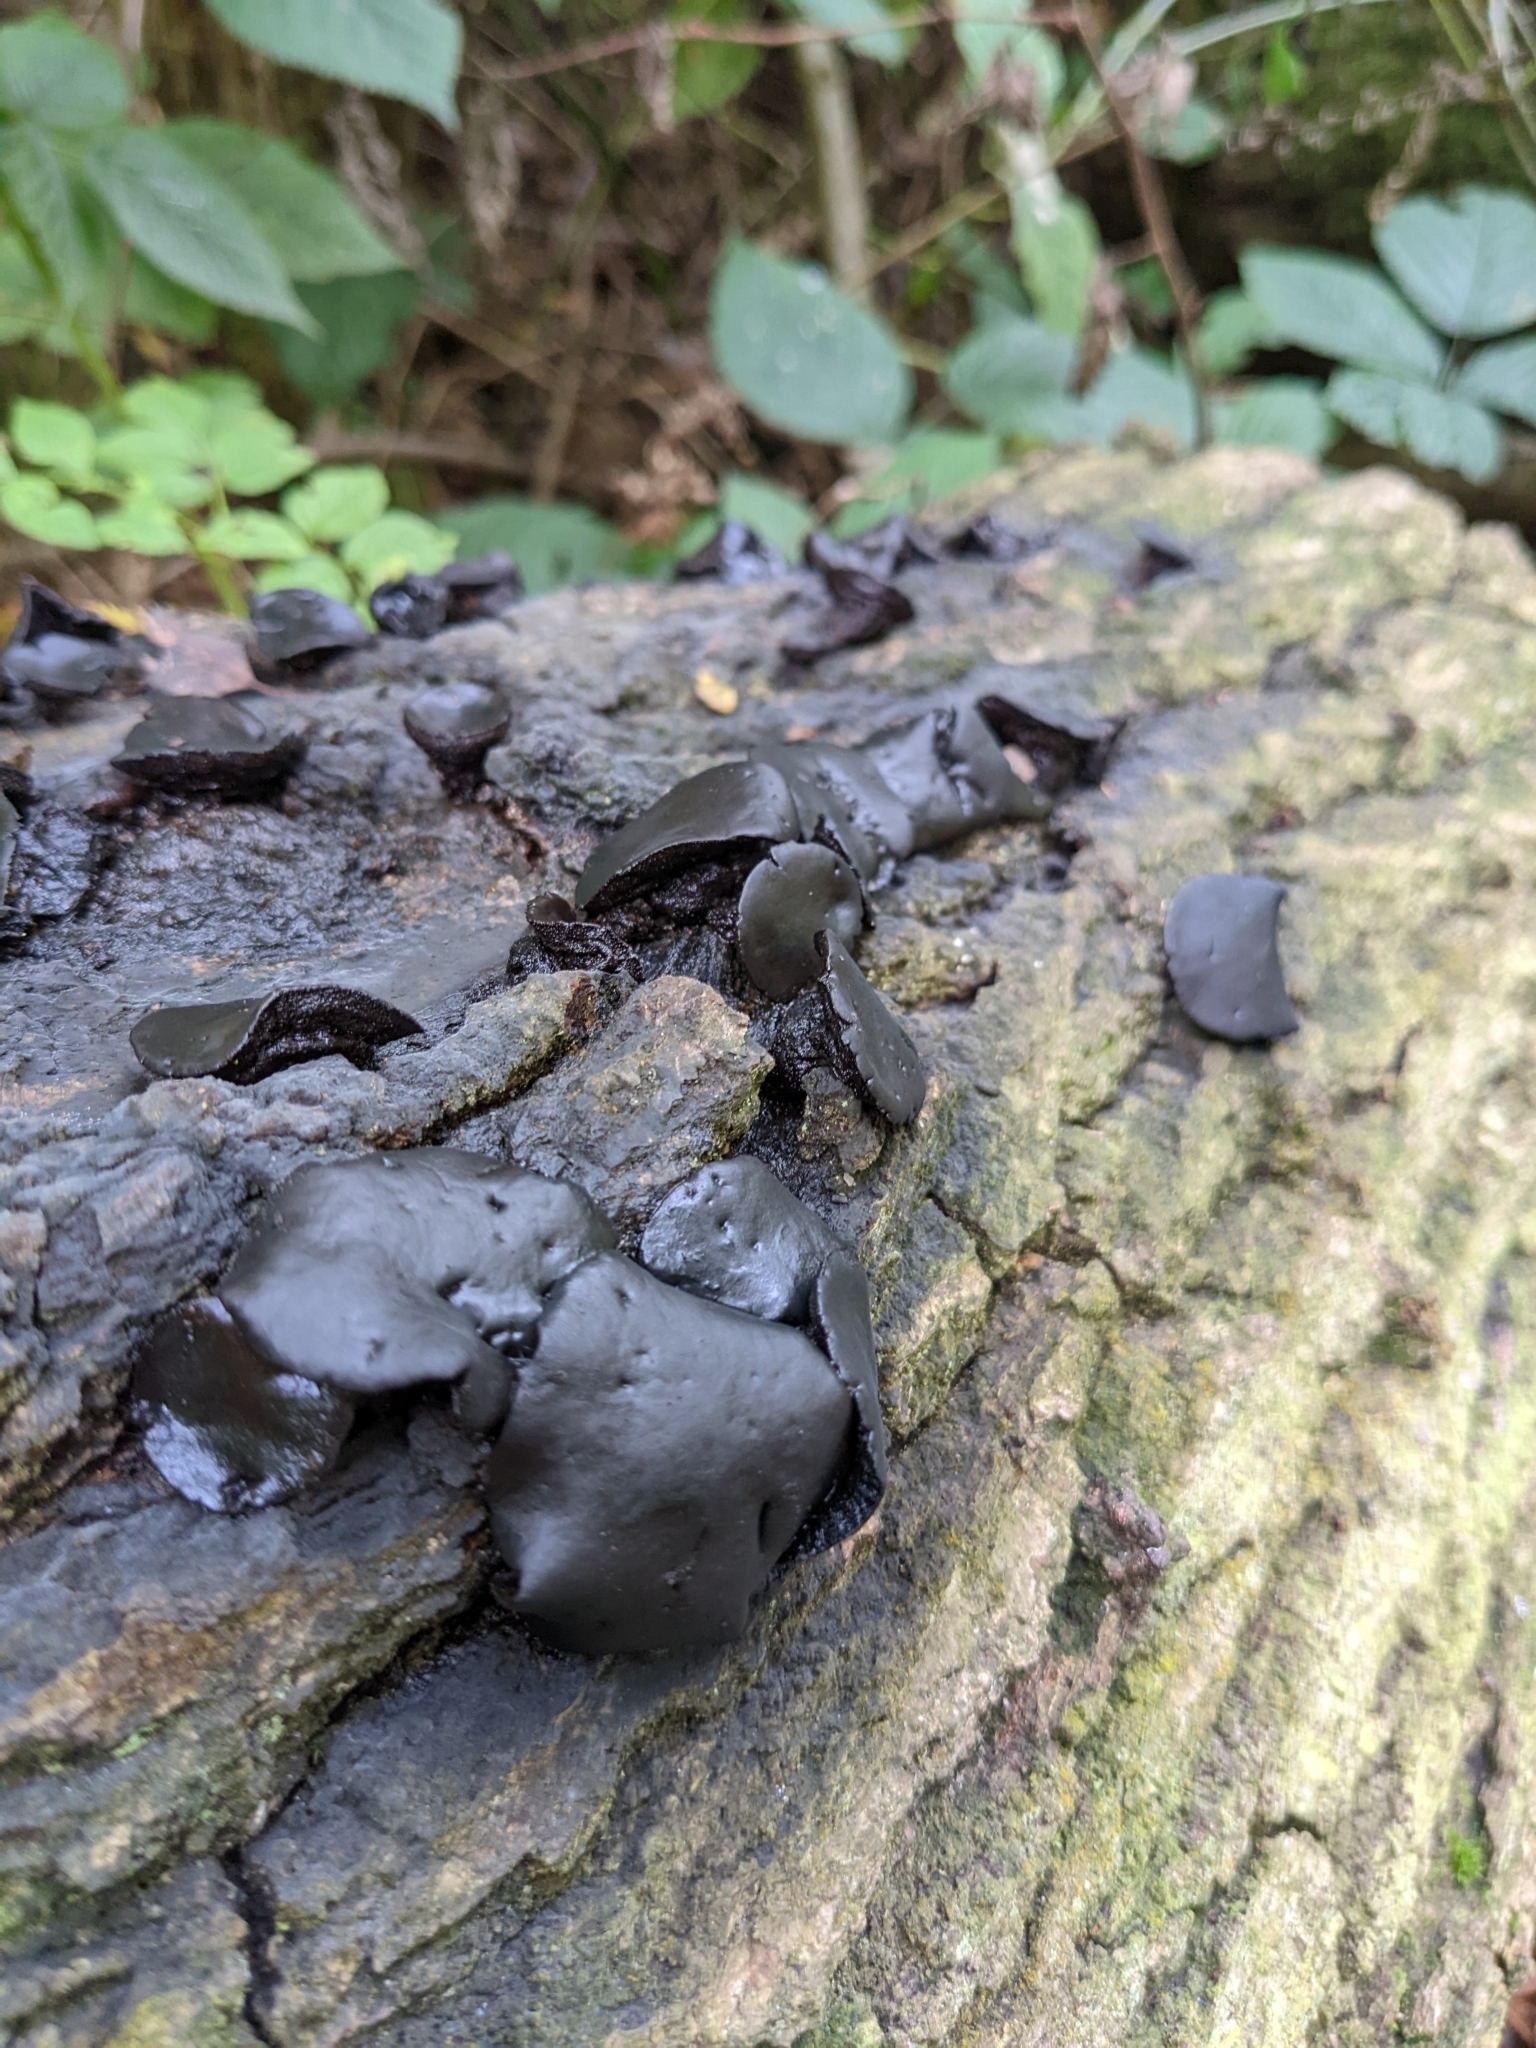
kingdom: Fungi
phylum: Ascomycota
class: Leotiomycetes
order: Phacidiales
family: Phacidiaceae
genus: Bulgaria
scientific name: Bulgaria inquinans
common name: Black bulgar
